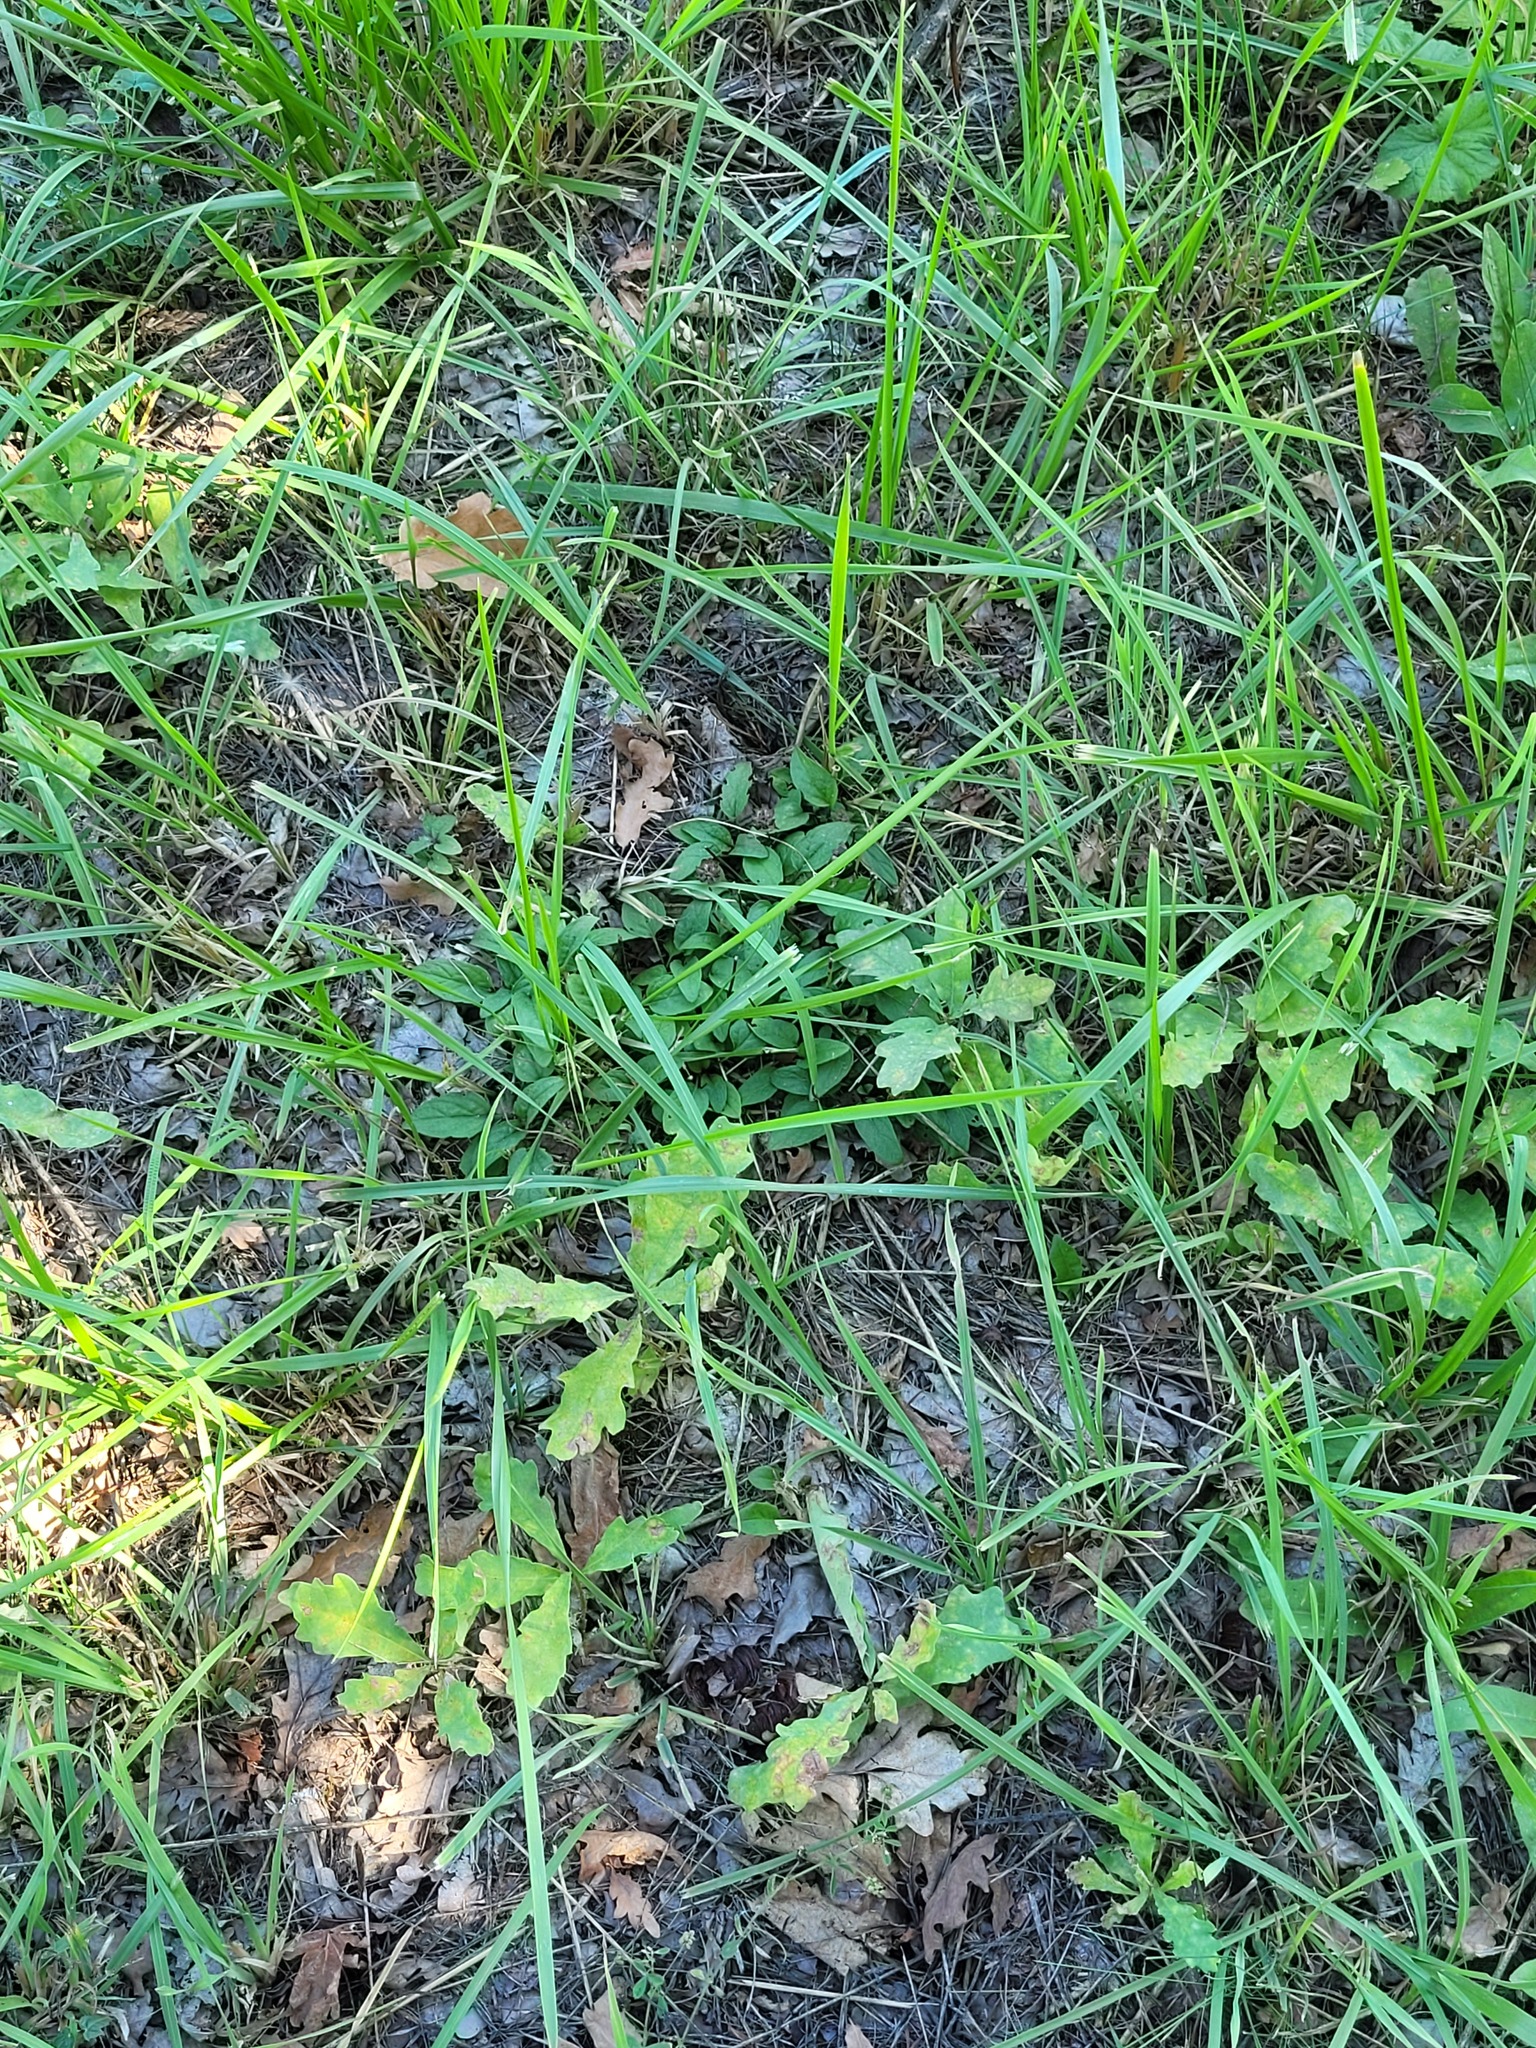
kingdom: Plantae
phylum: Tracheophyta
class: Magnoliopsida
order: Lamiales
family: Lamiaceae
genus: Prunella
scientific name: Prunella vulgaris
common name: Heal-all
